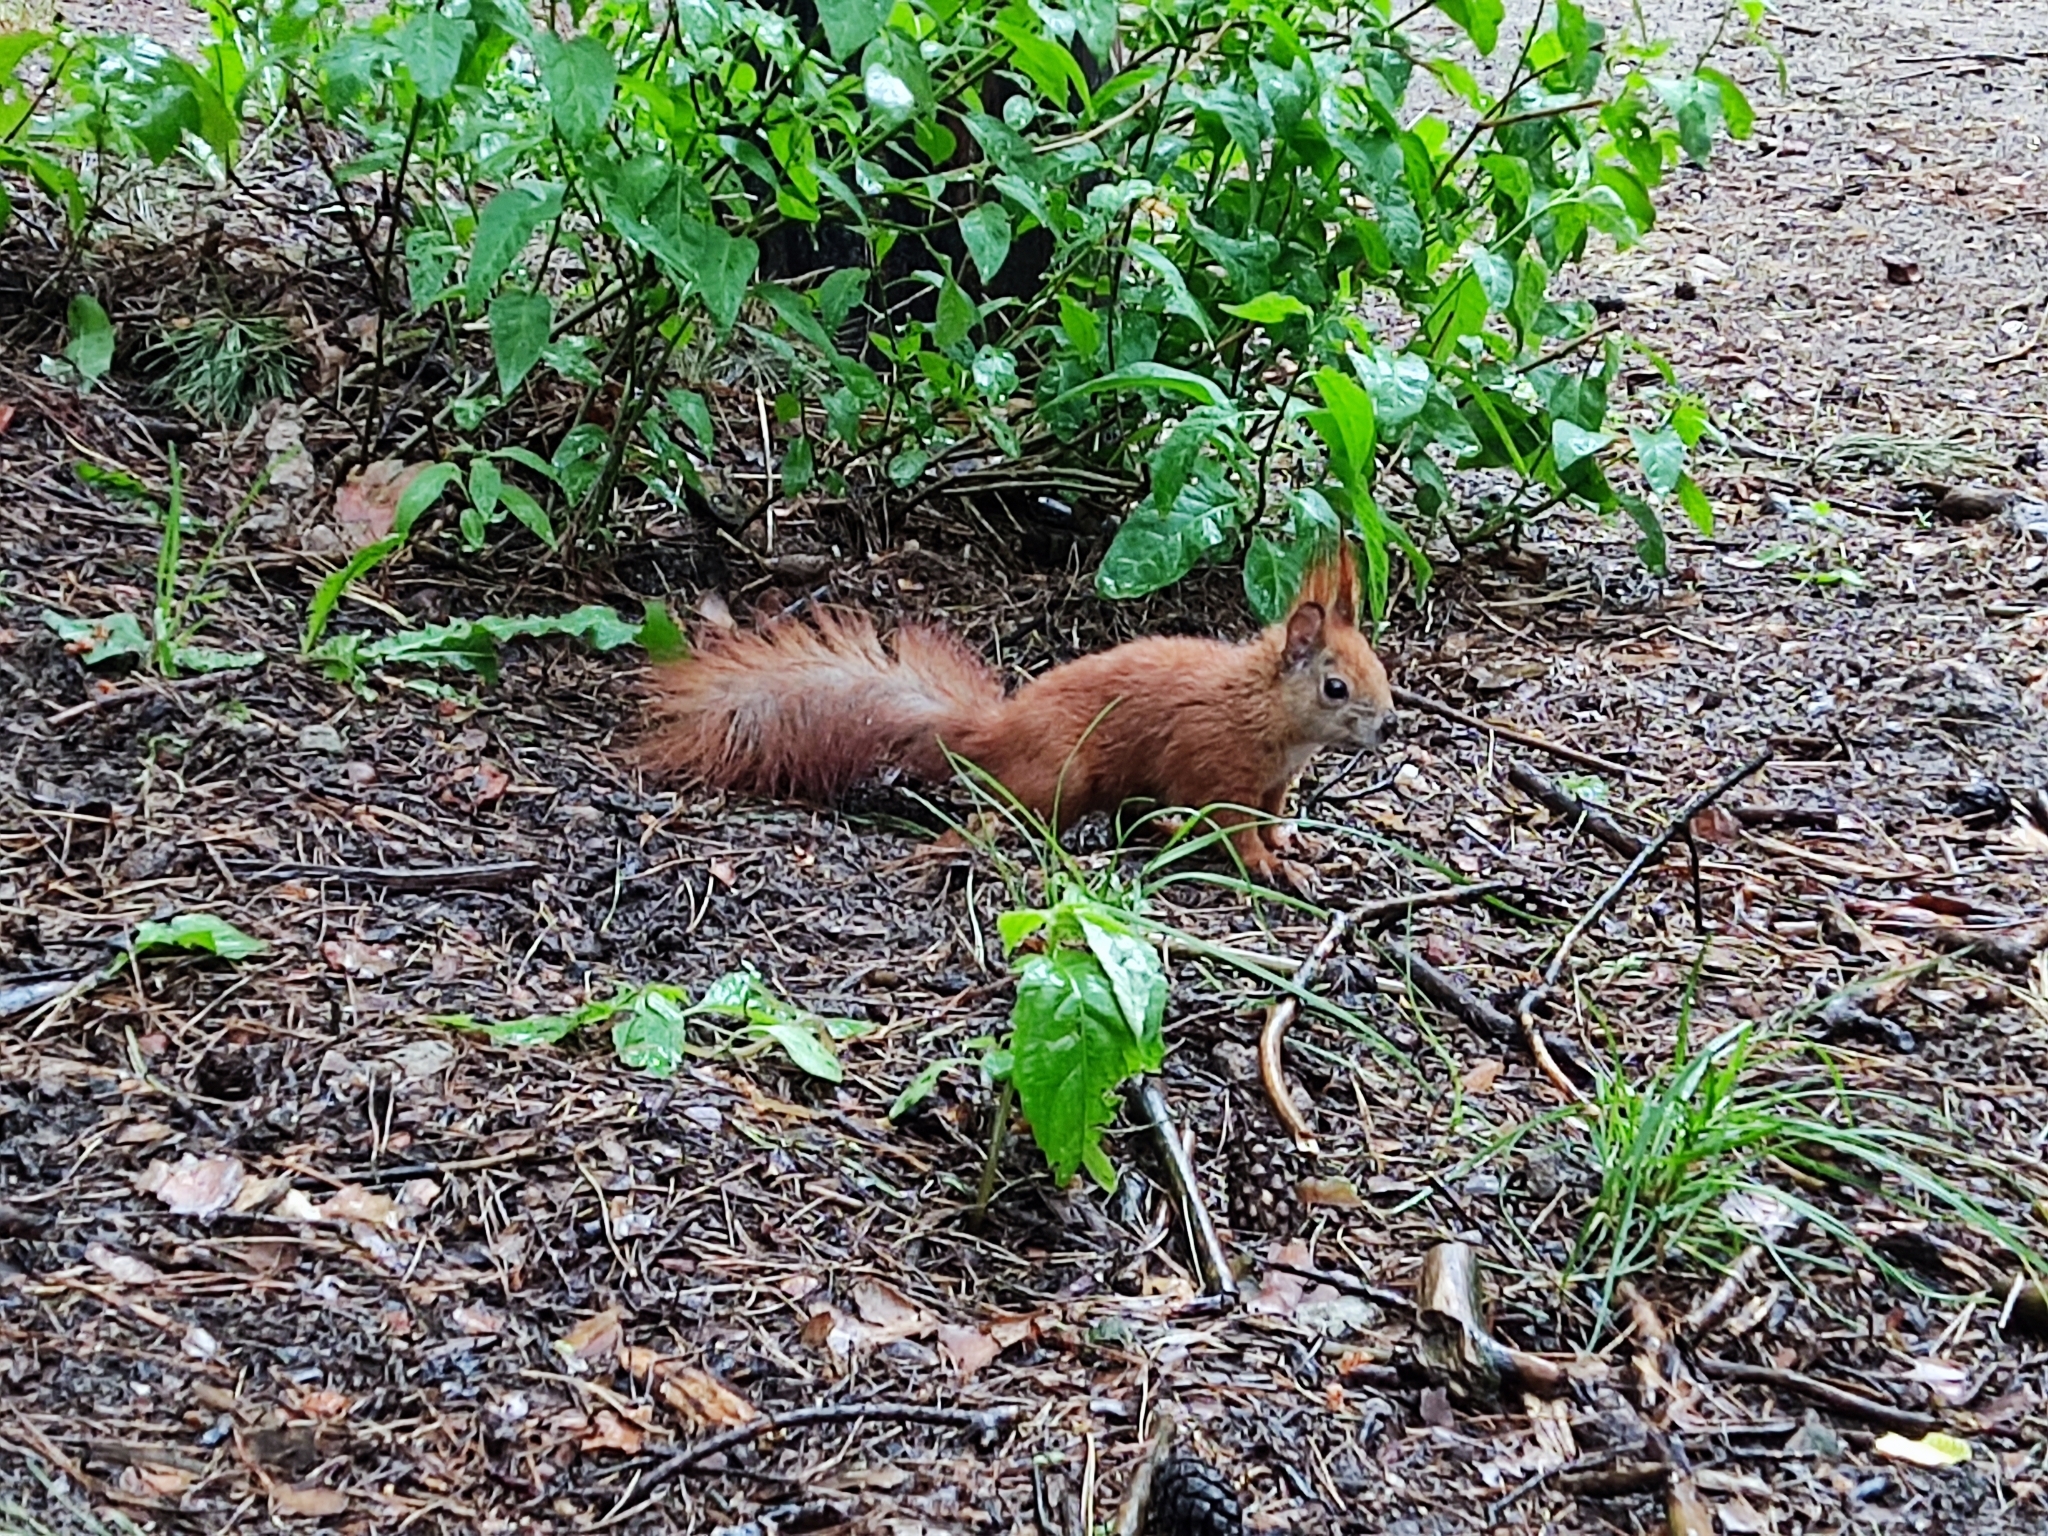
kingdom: Animalia
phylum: Chordata
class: Mammalia
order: Rodentia
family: Sciuridae
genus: Sciurus
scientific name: Sciurus vulgaris
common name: Eurasian red squirrel
